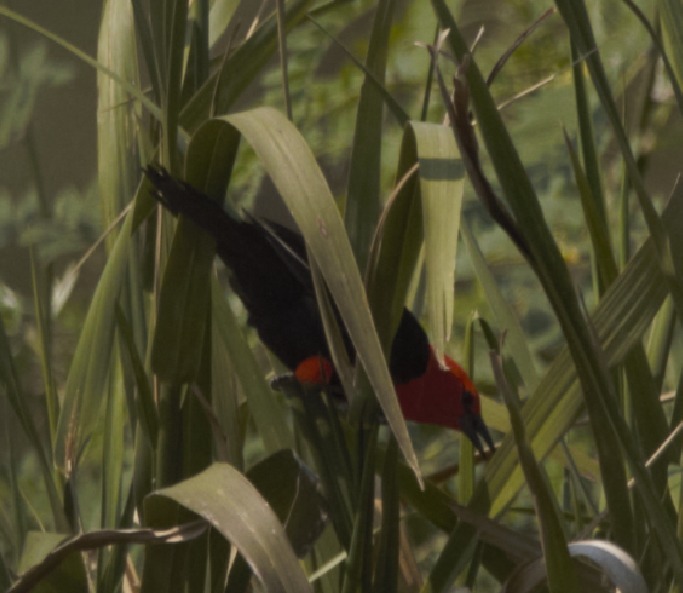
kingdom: Animalia
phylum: Chordata
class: Aves
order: Passeriformes
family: Icteridae
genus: Amblyramphus
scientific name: Amblyramphus holosericeus
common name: Scarlet-headed blackbird
